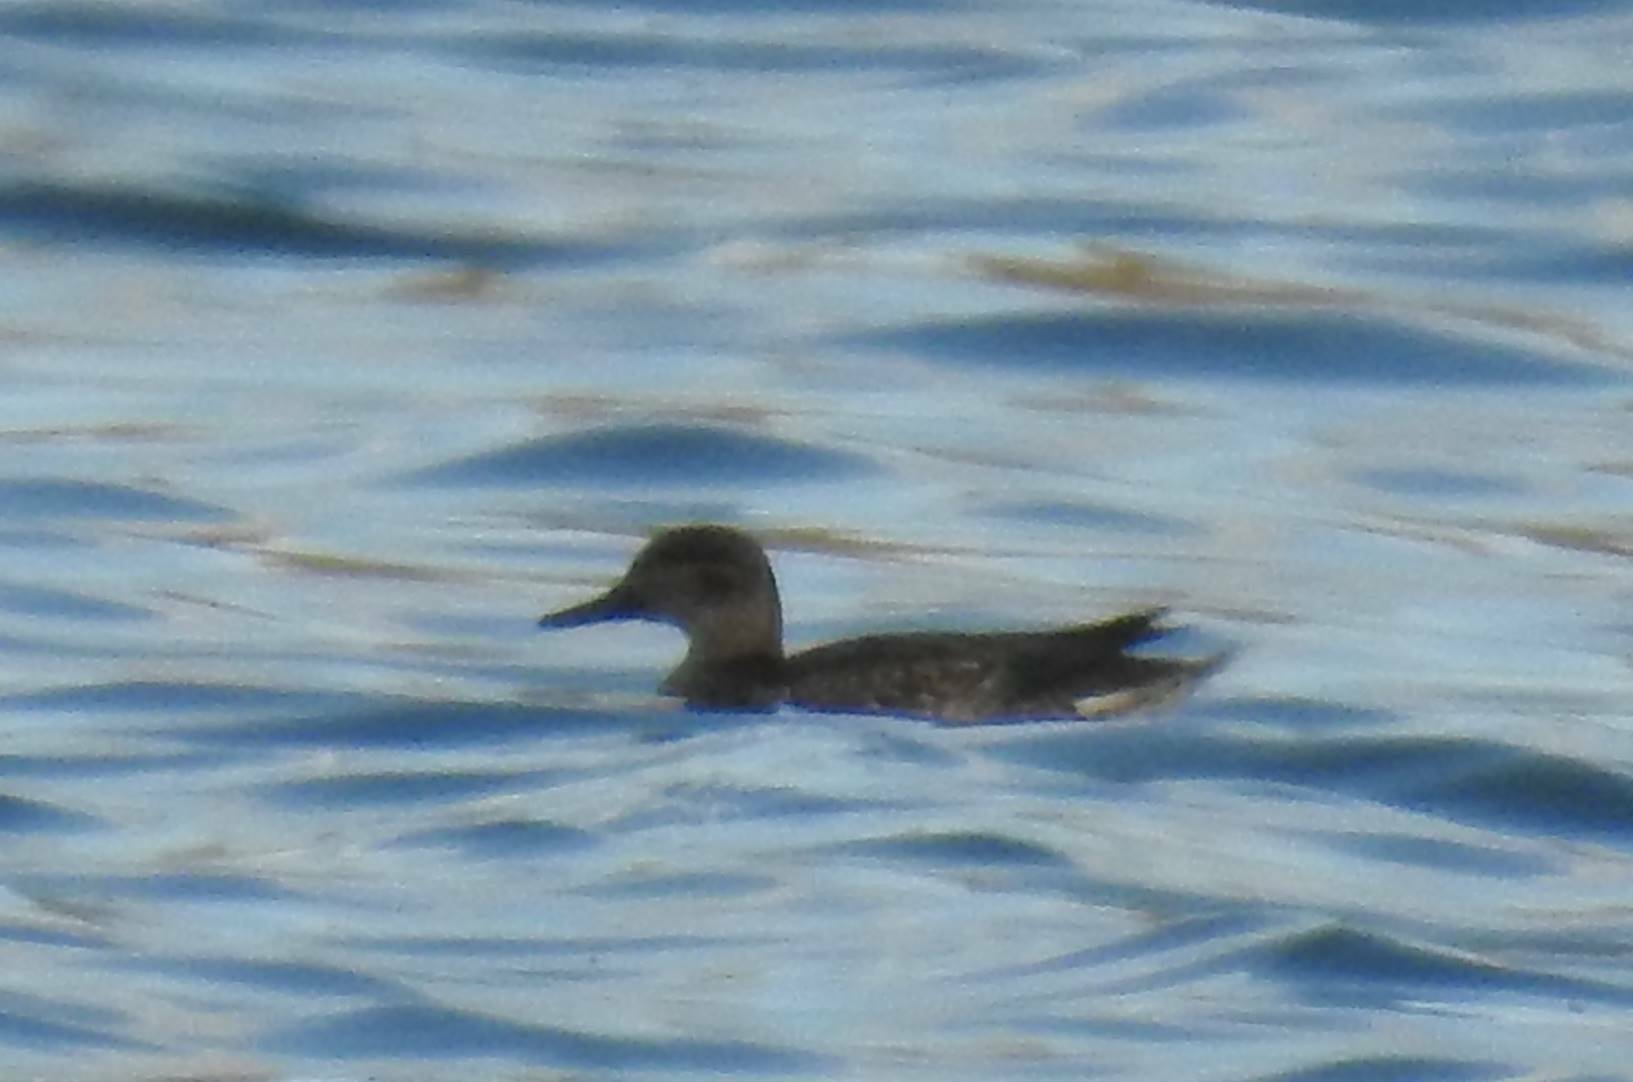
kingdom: Animalia
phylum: Chordata
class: Aves
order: Anseriformes
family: Anatidae
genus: Anas
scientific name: Anas crecca
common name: Eurasian teal
